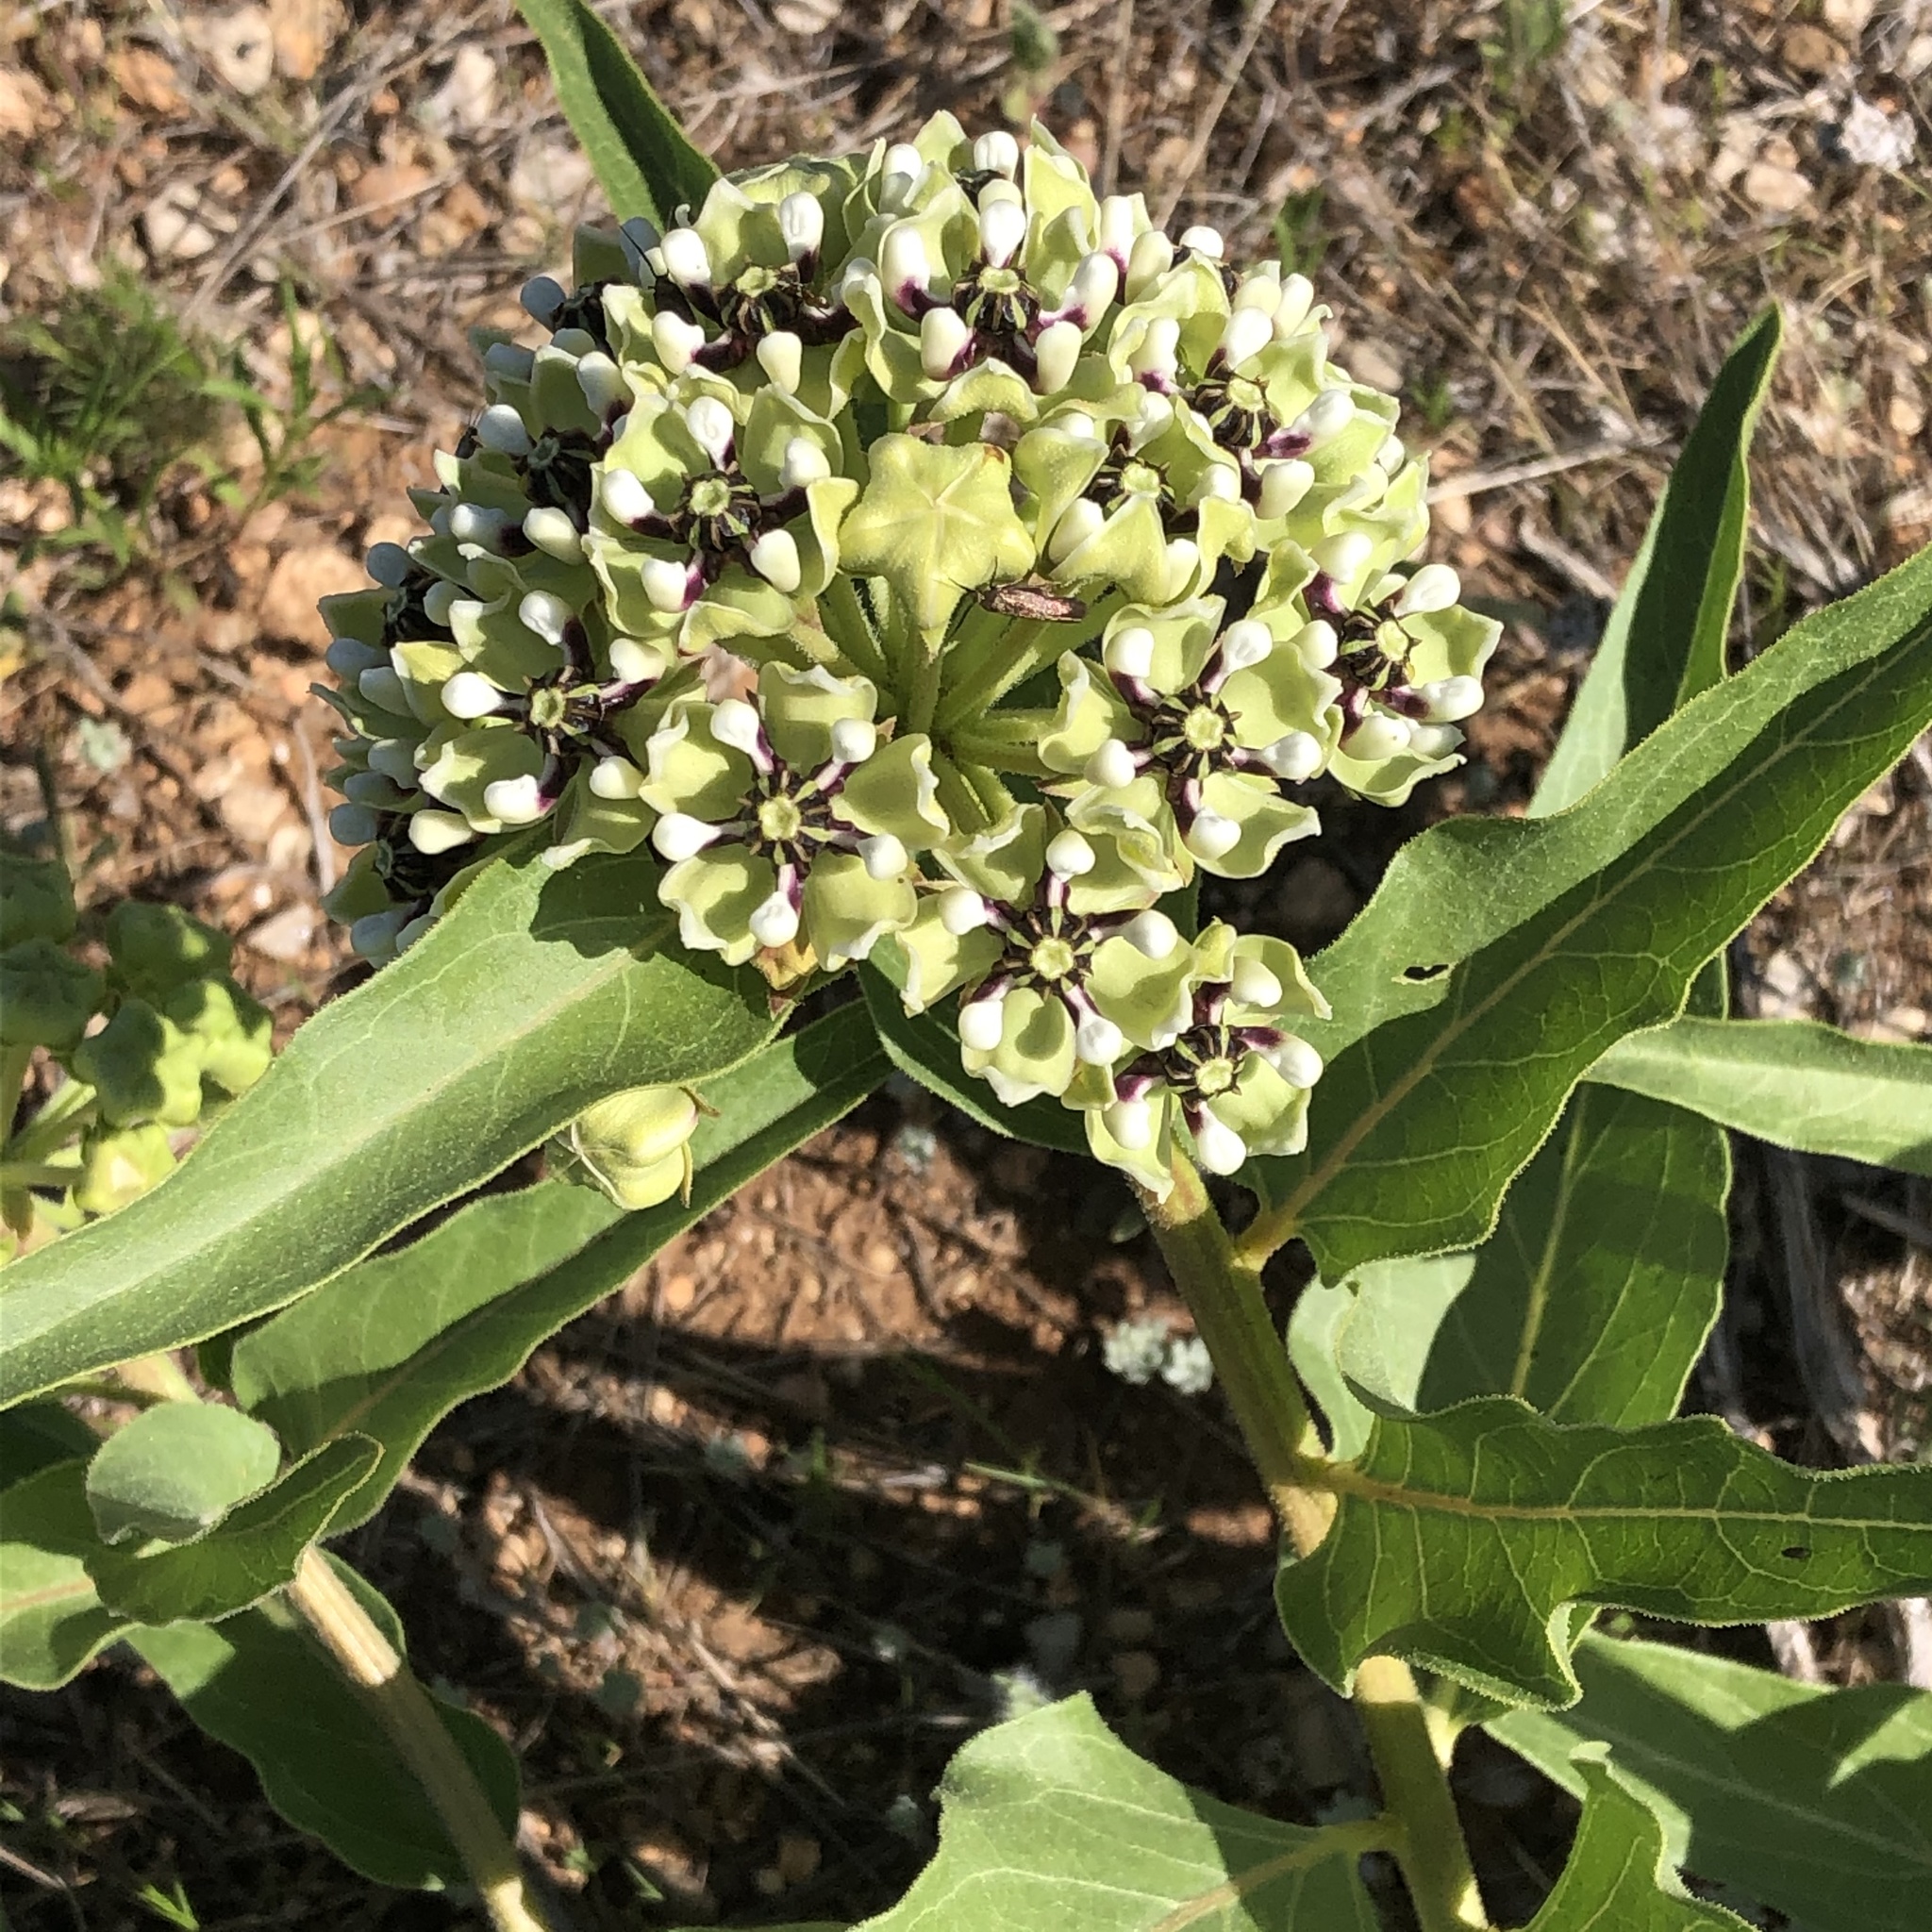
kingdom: Plantae
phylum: Tracheophyta
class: Magnoliopsida
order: Gentianales
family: Apocynaceae
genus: Asclepias
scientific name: Asclepias asperula
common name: Antelope horns
